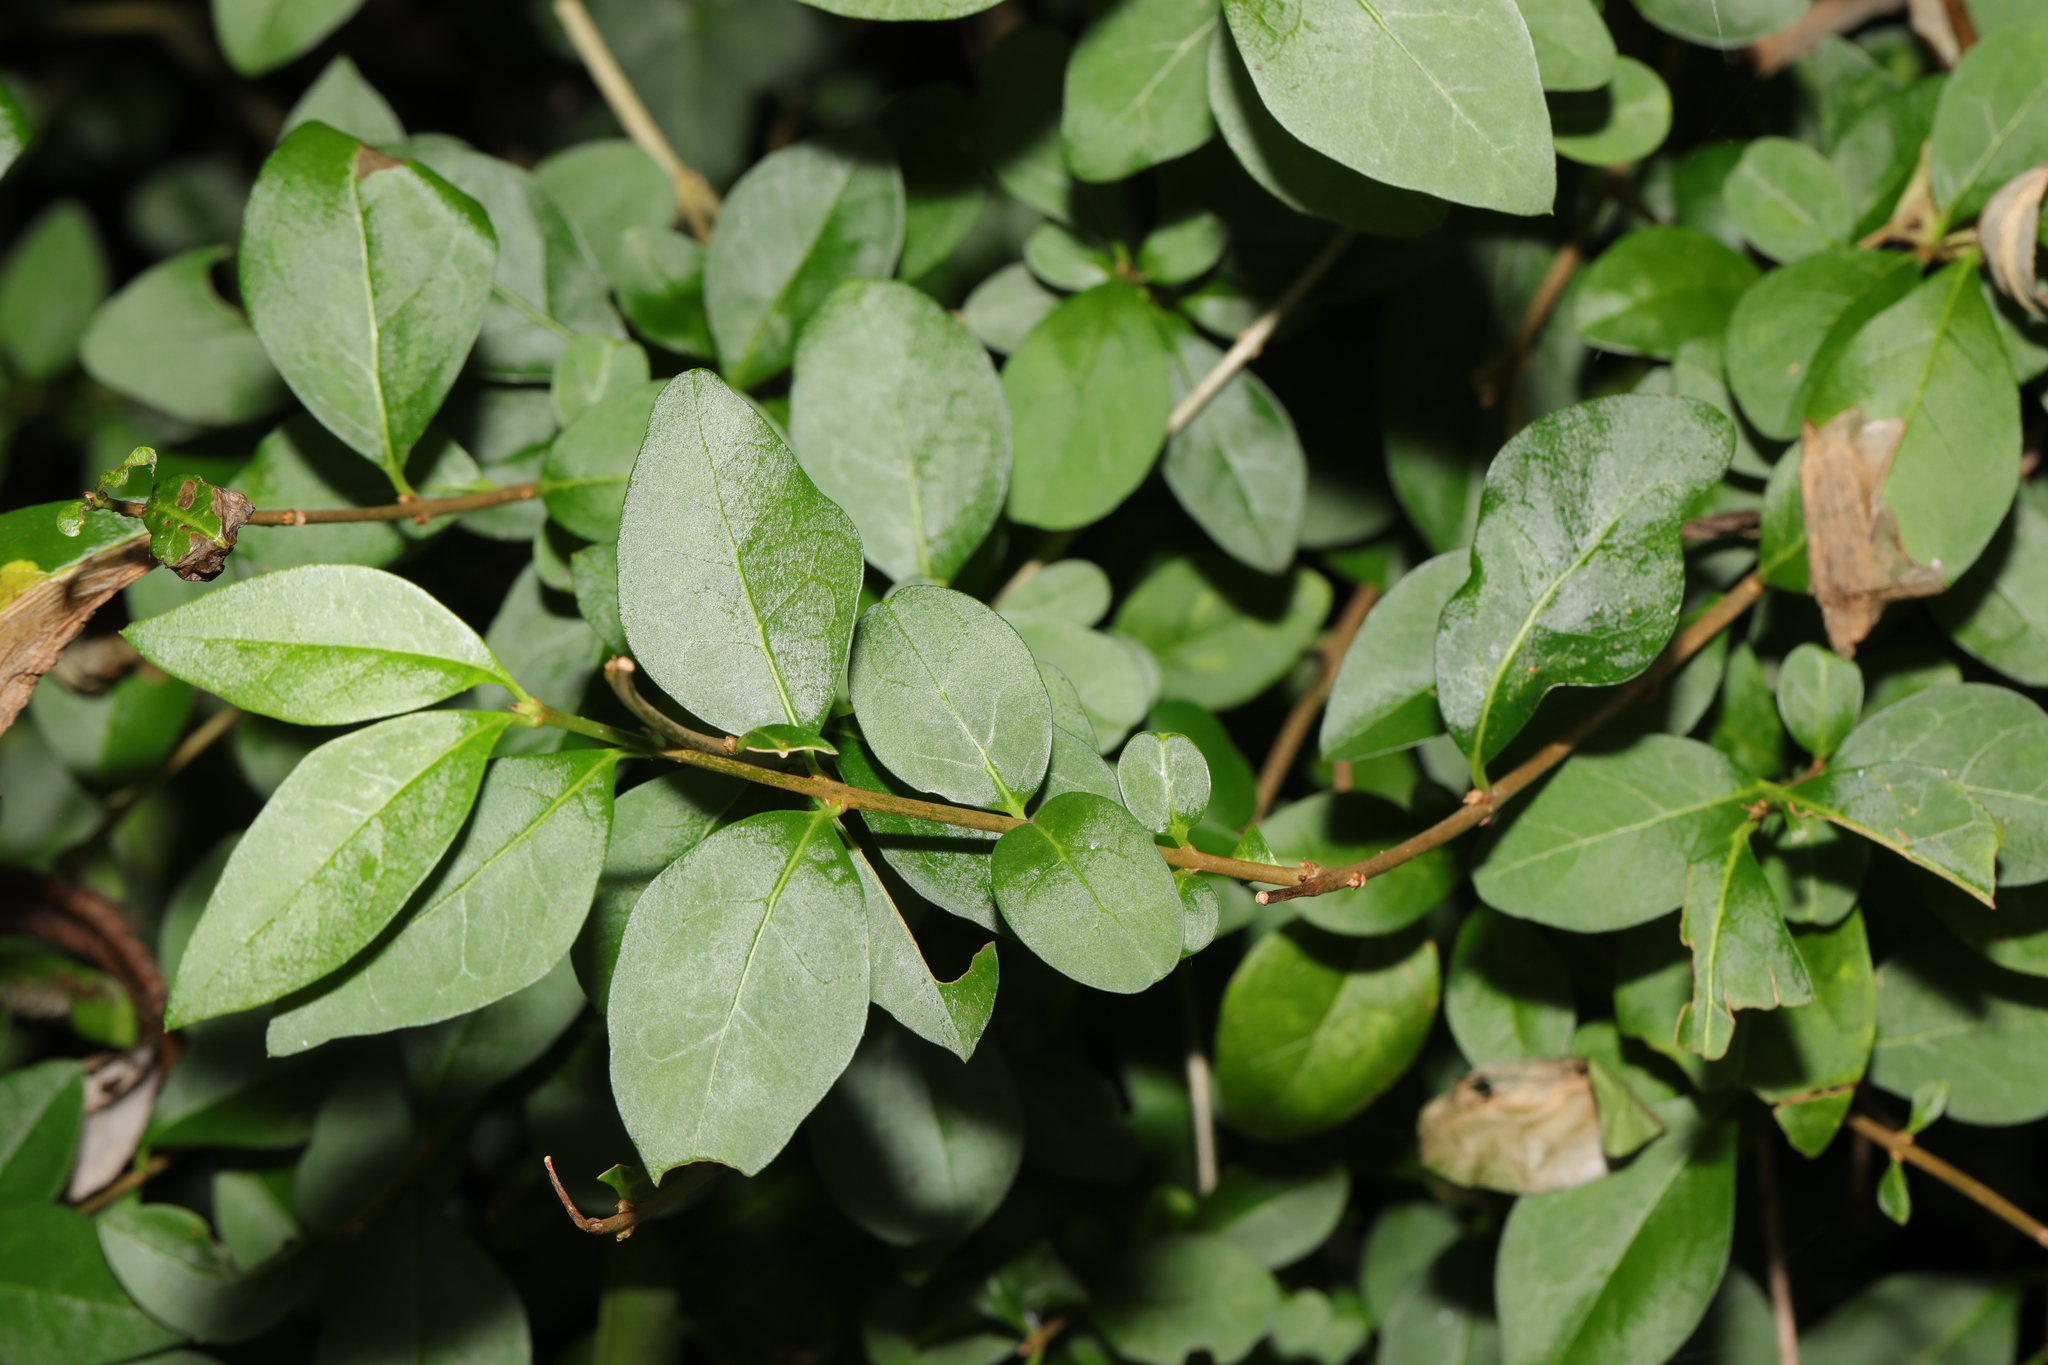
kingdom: Plantae
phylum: Tracheophyta
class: Magnoliopsida
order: Lamiales
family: Oleaceae
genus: Ligustrum
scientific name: Ligustrum ovalifolium
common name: California privet
